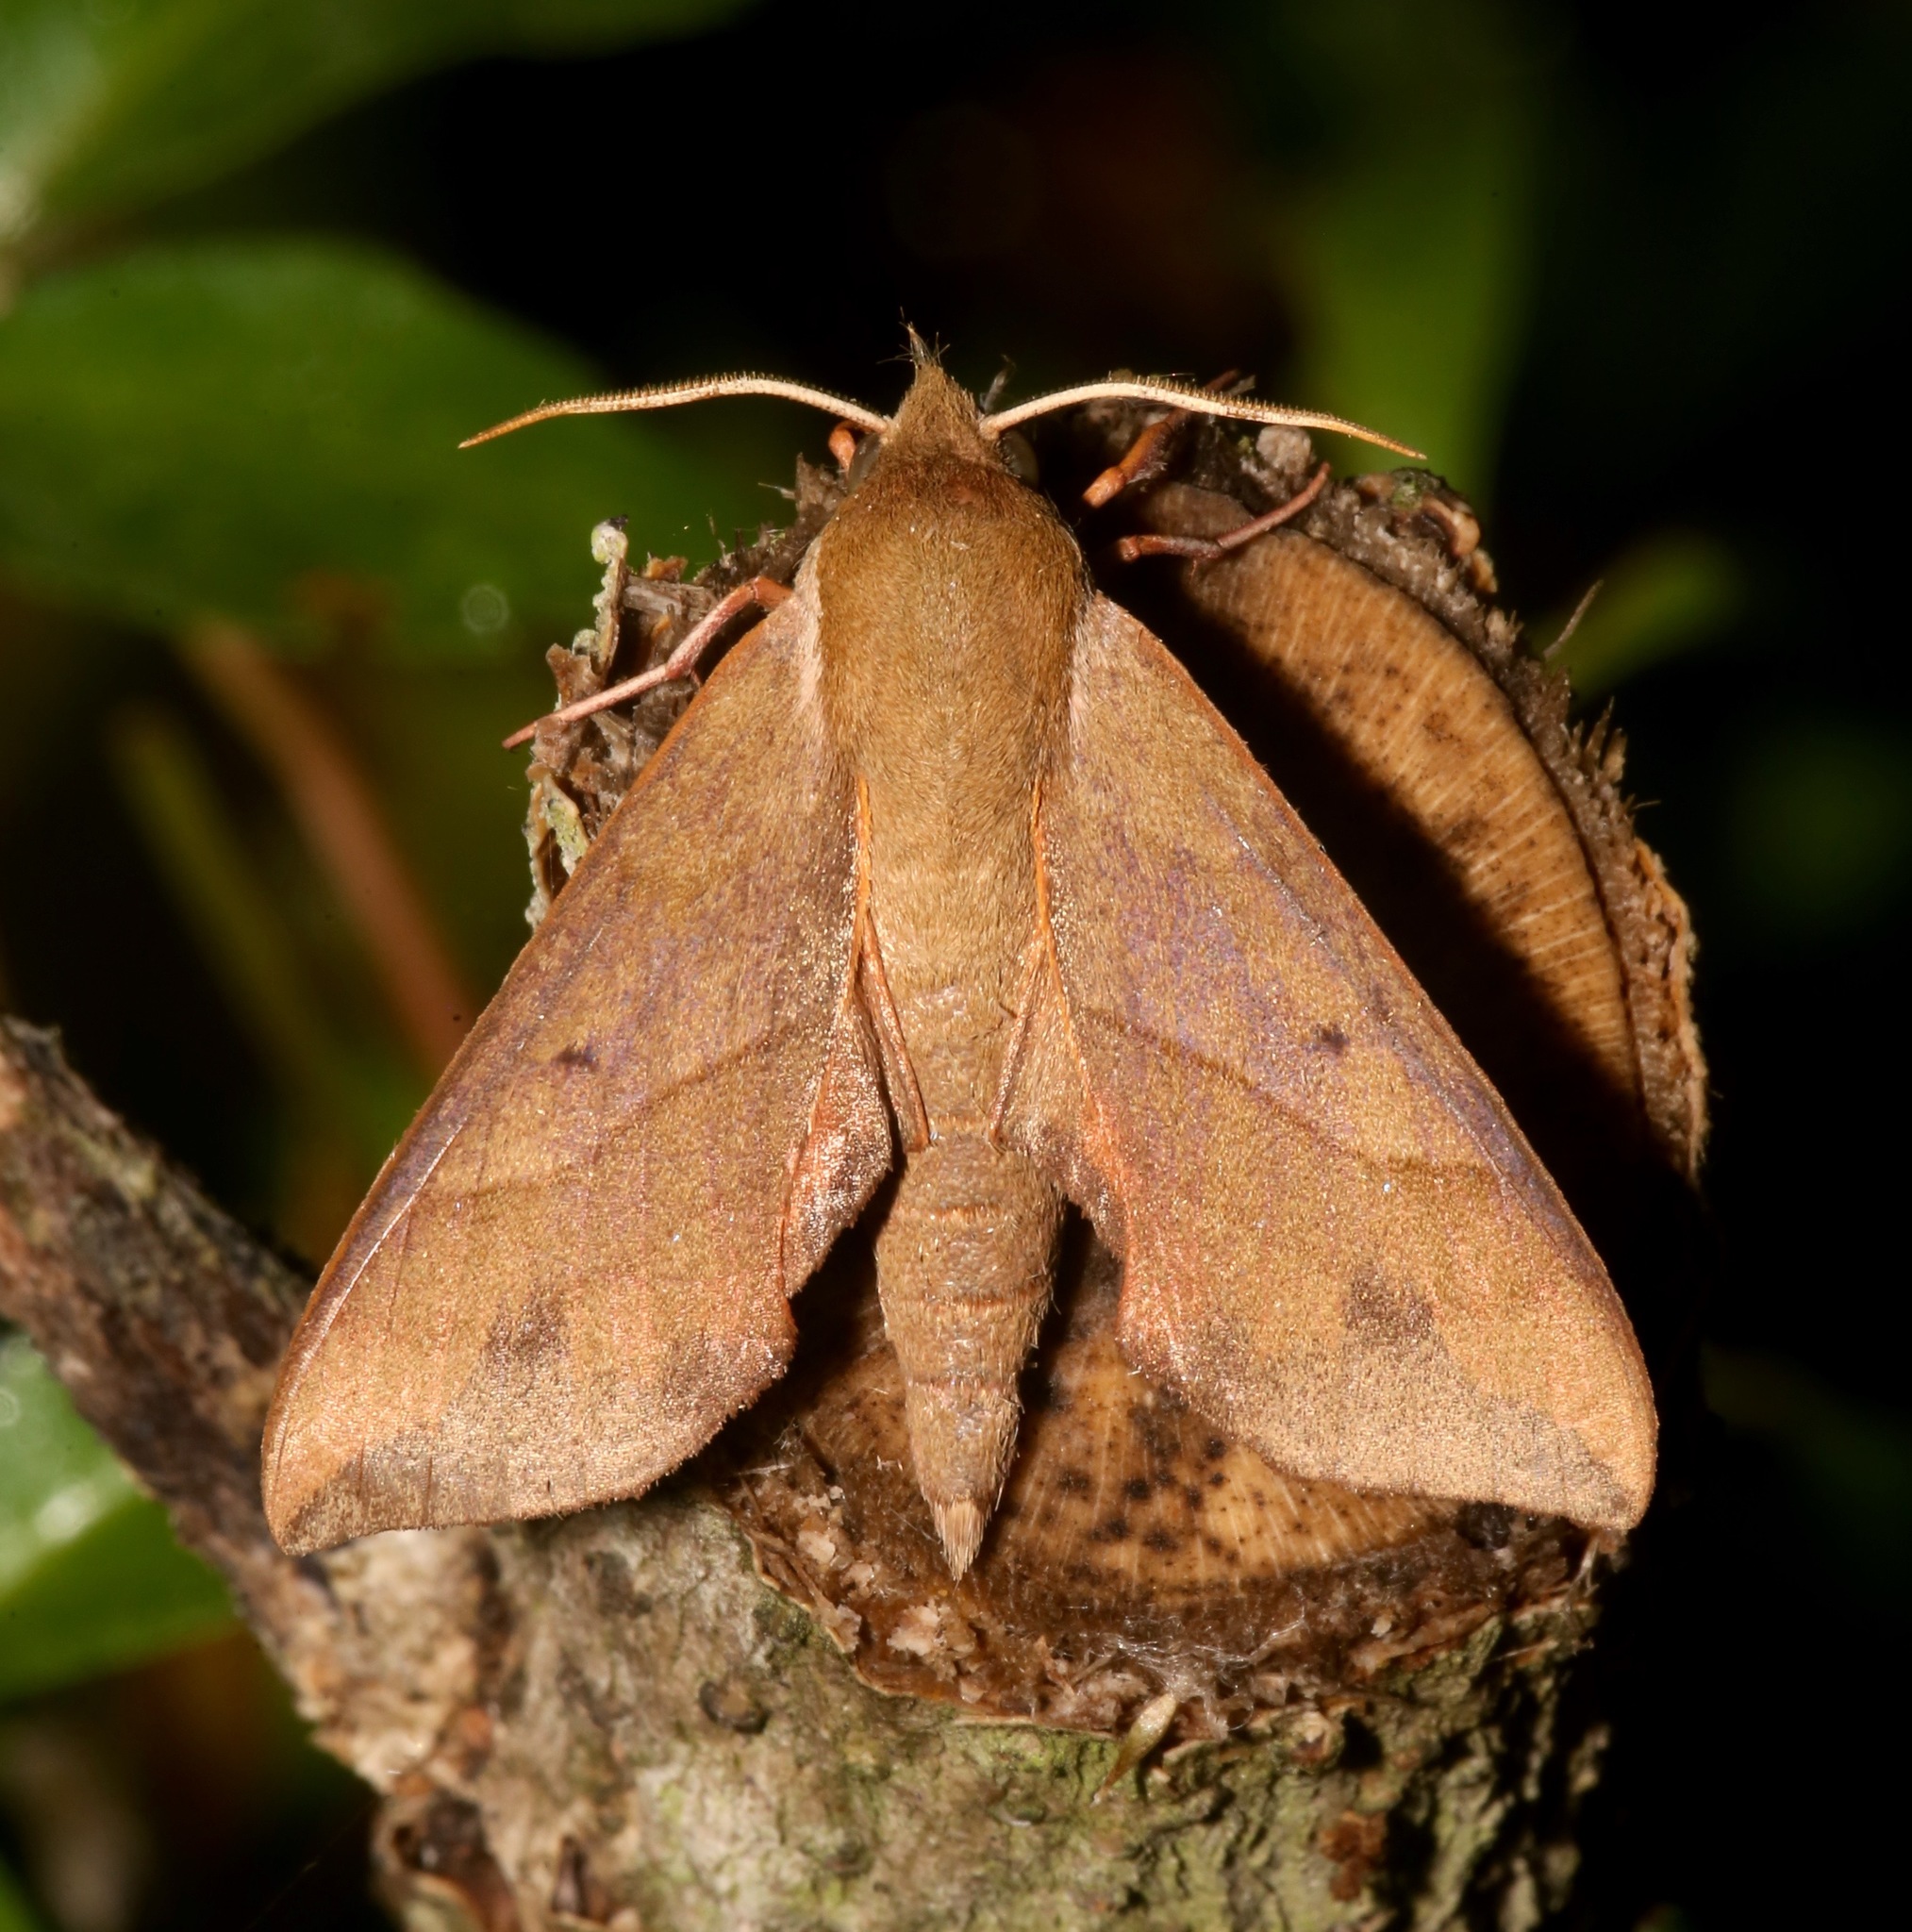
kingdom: Animalia
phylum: Arthropoda
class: Insecta
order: Lepidoptera
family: Sphingidae
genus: Darapsa
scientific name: Darapsa myron
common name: Hog sphinx
